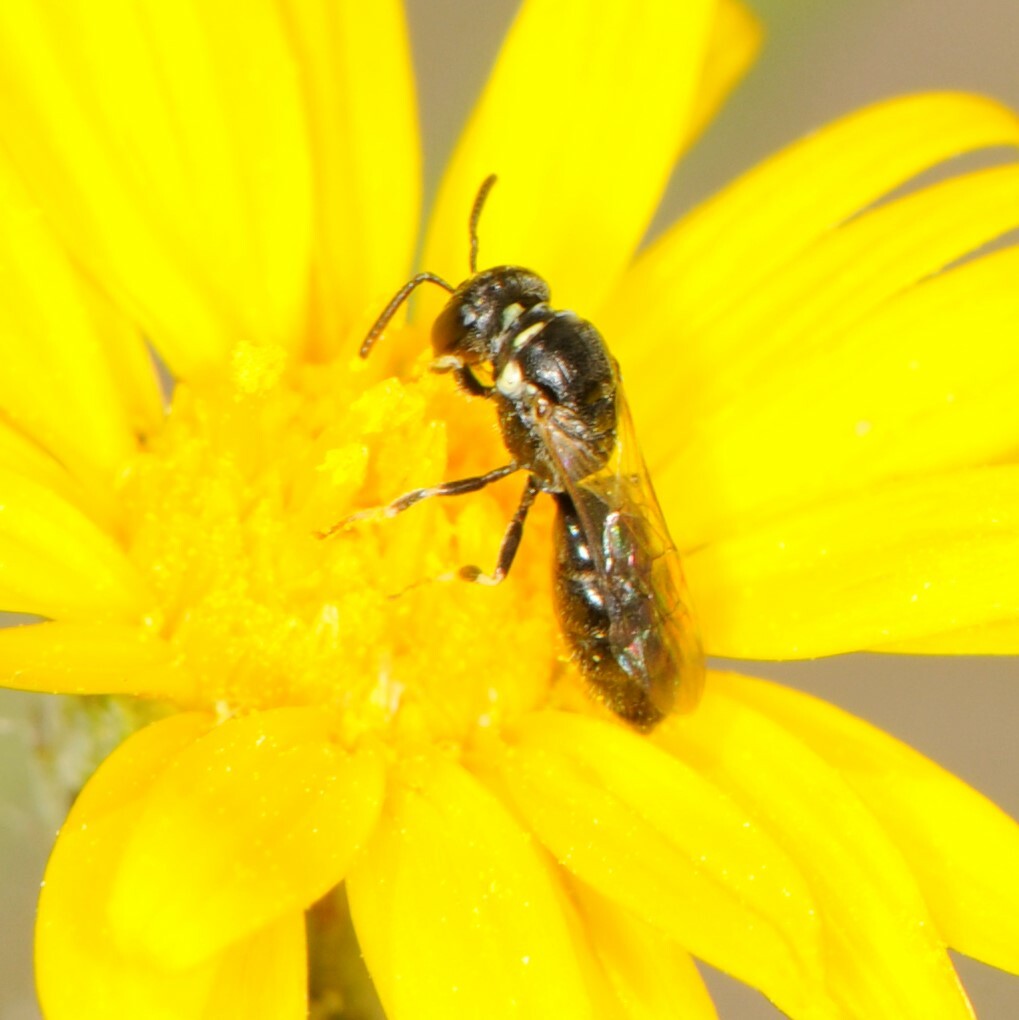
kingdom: Animalia
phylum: Arthropoda
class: Insecta
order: Hymenoptera
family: Colletidae
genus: Hylaeus
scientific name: Hylaeus
